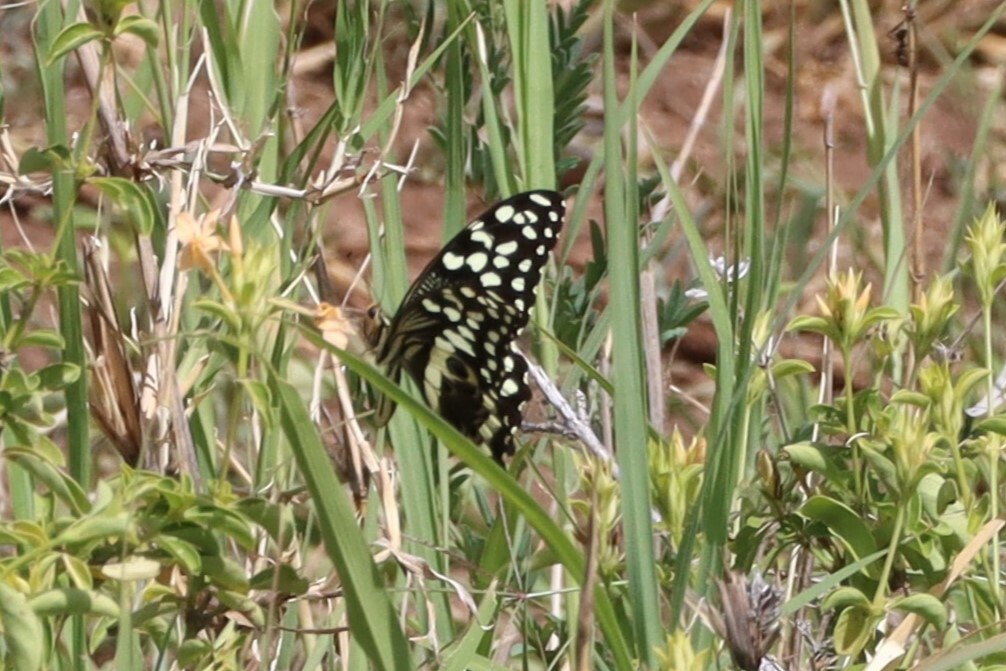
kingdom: Animalia
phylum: Arthropoda
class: Insecta
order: Lepidoptera
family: Papilionidae
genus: Papilio
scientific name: Papilio demodocus
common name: Christmas butterfly
